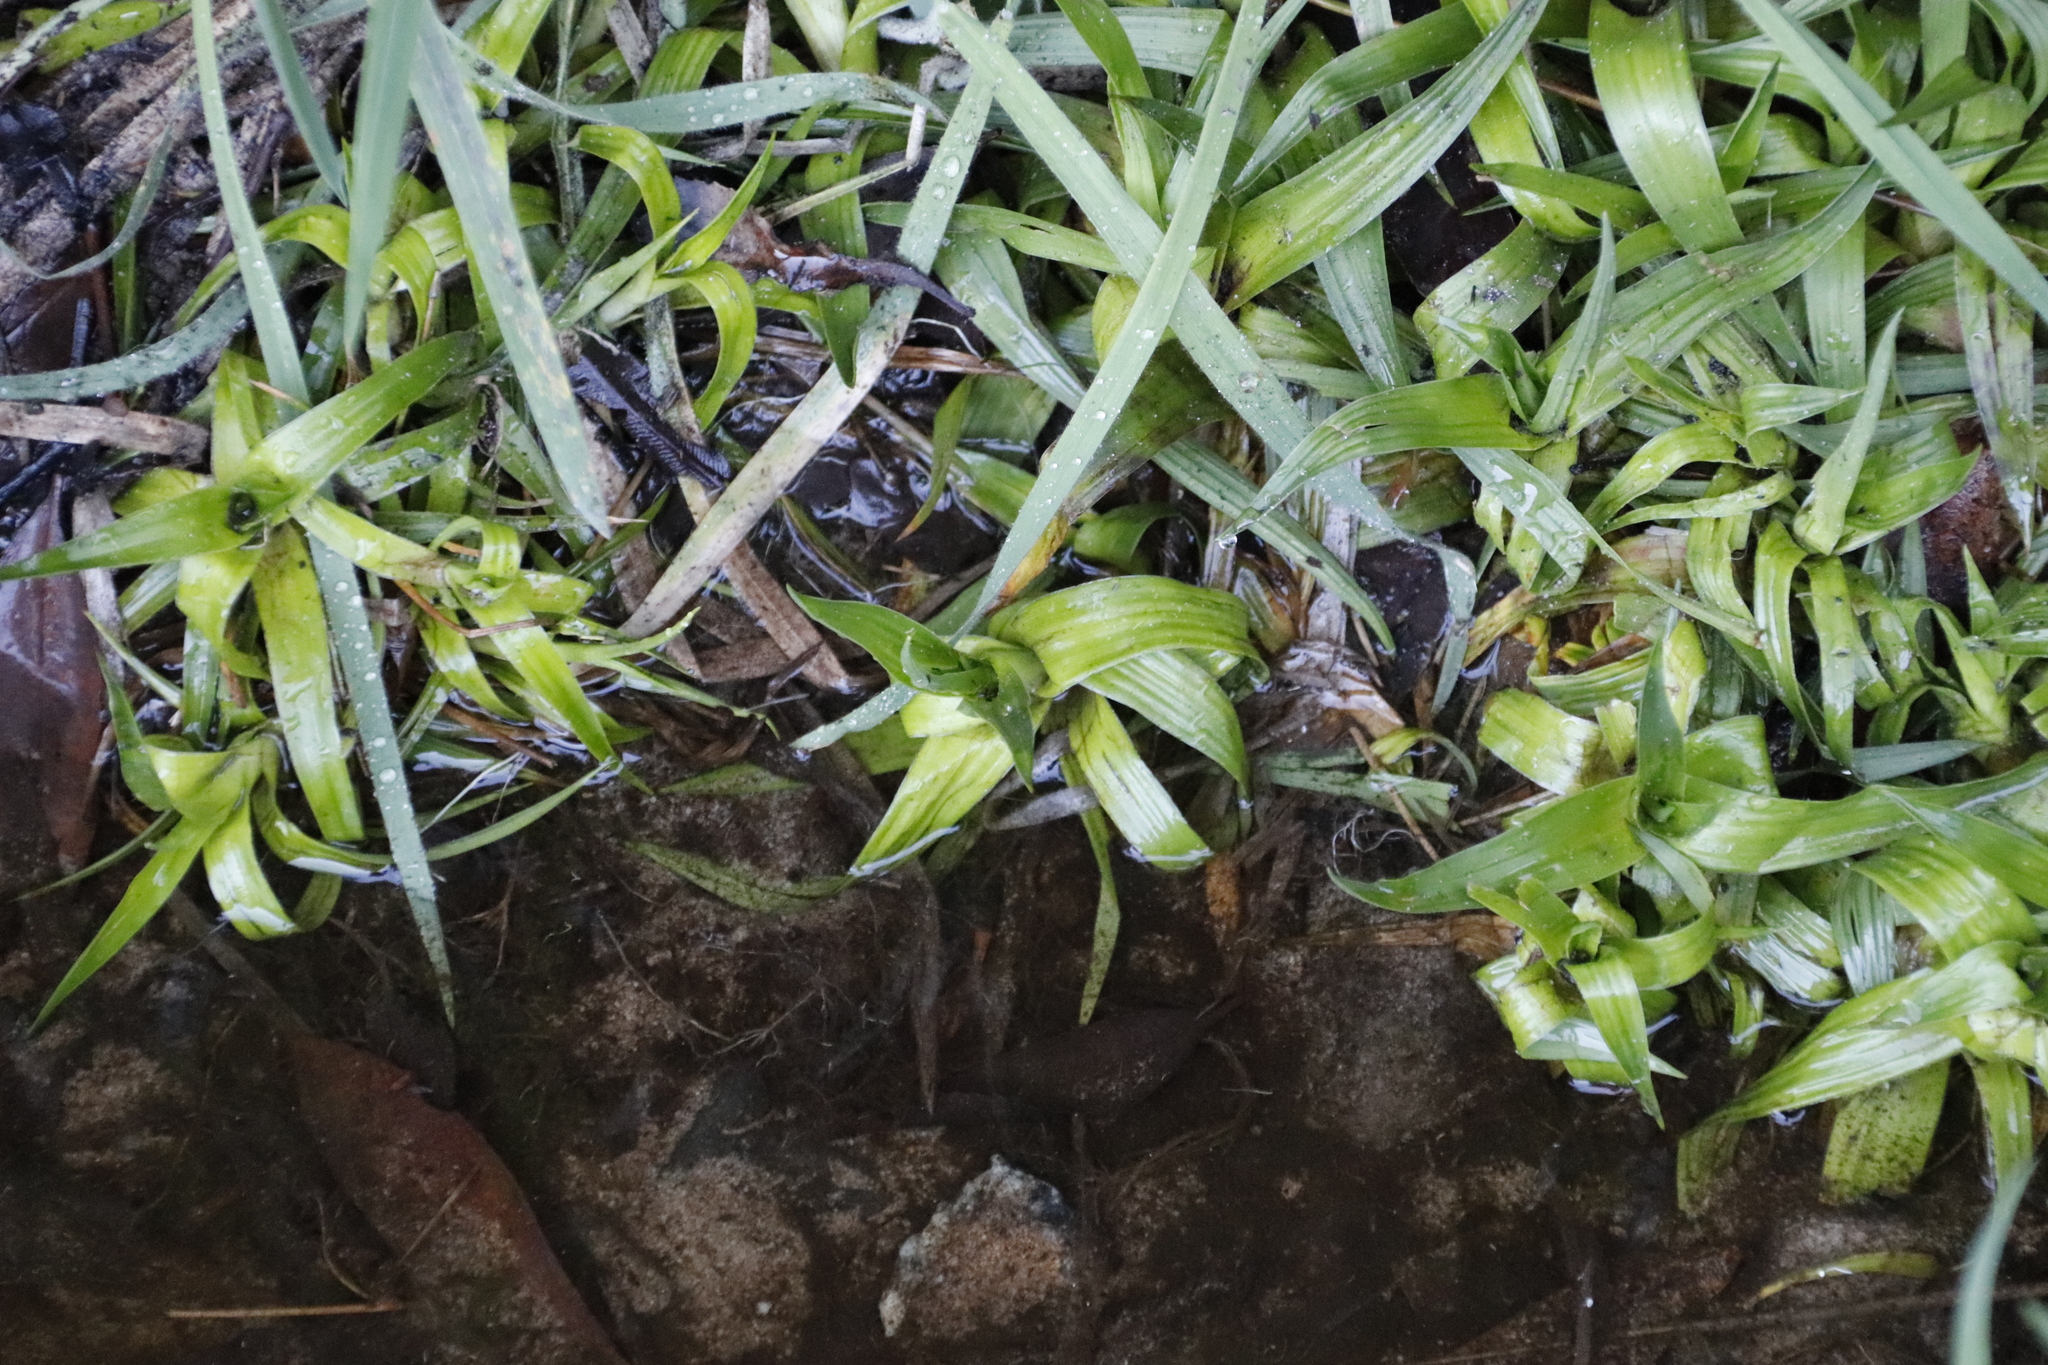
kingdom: Plantae
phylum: Tracheophyta
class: Liliopsida
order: Poales
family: Juncaceae
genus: Juncus
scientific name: Juncus lomatophyllus
